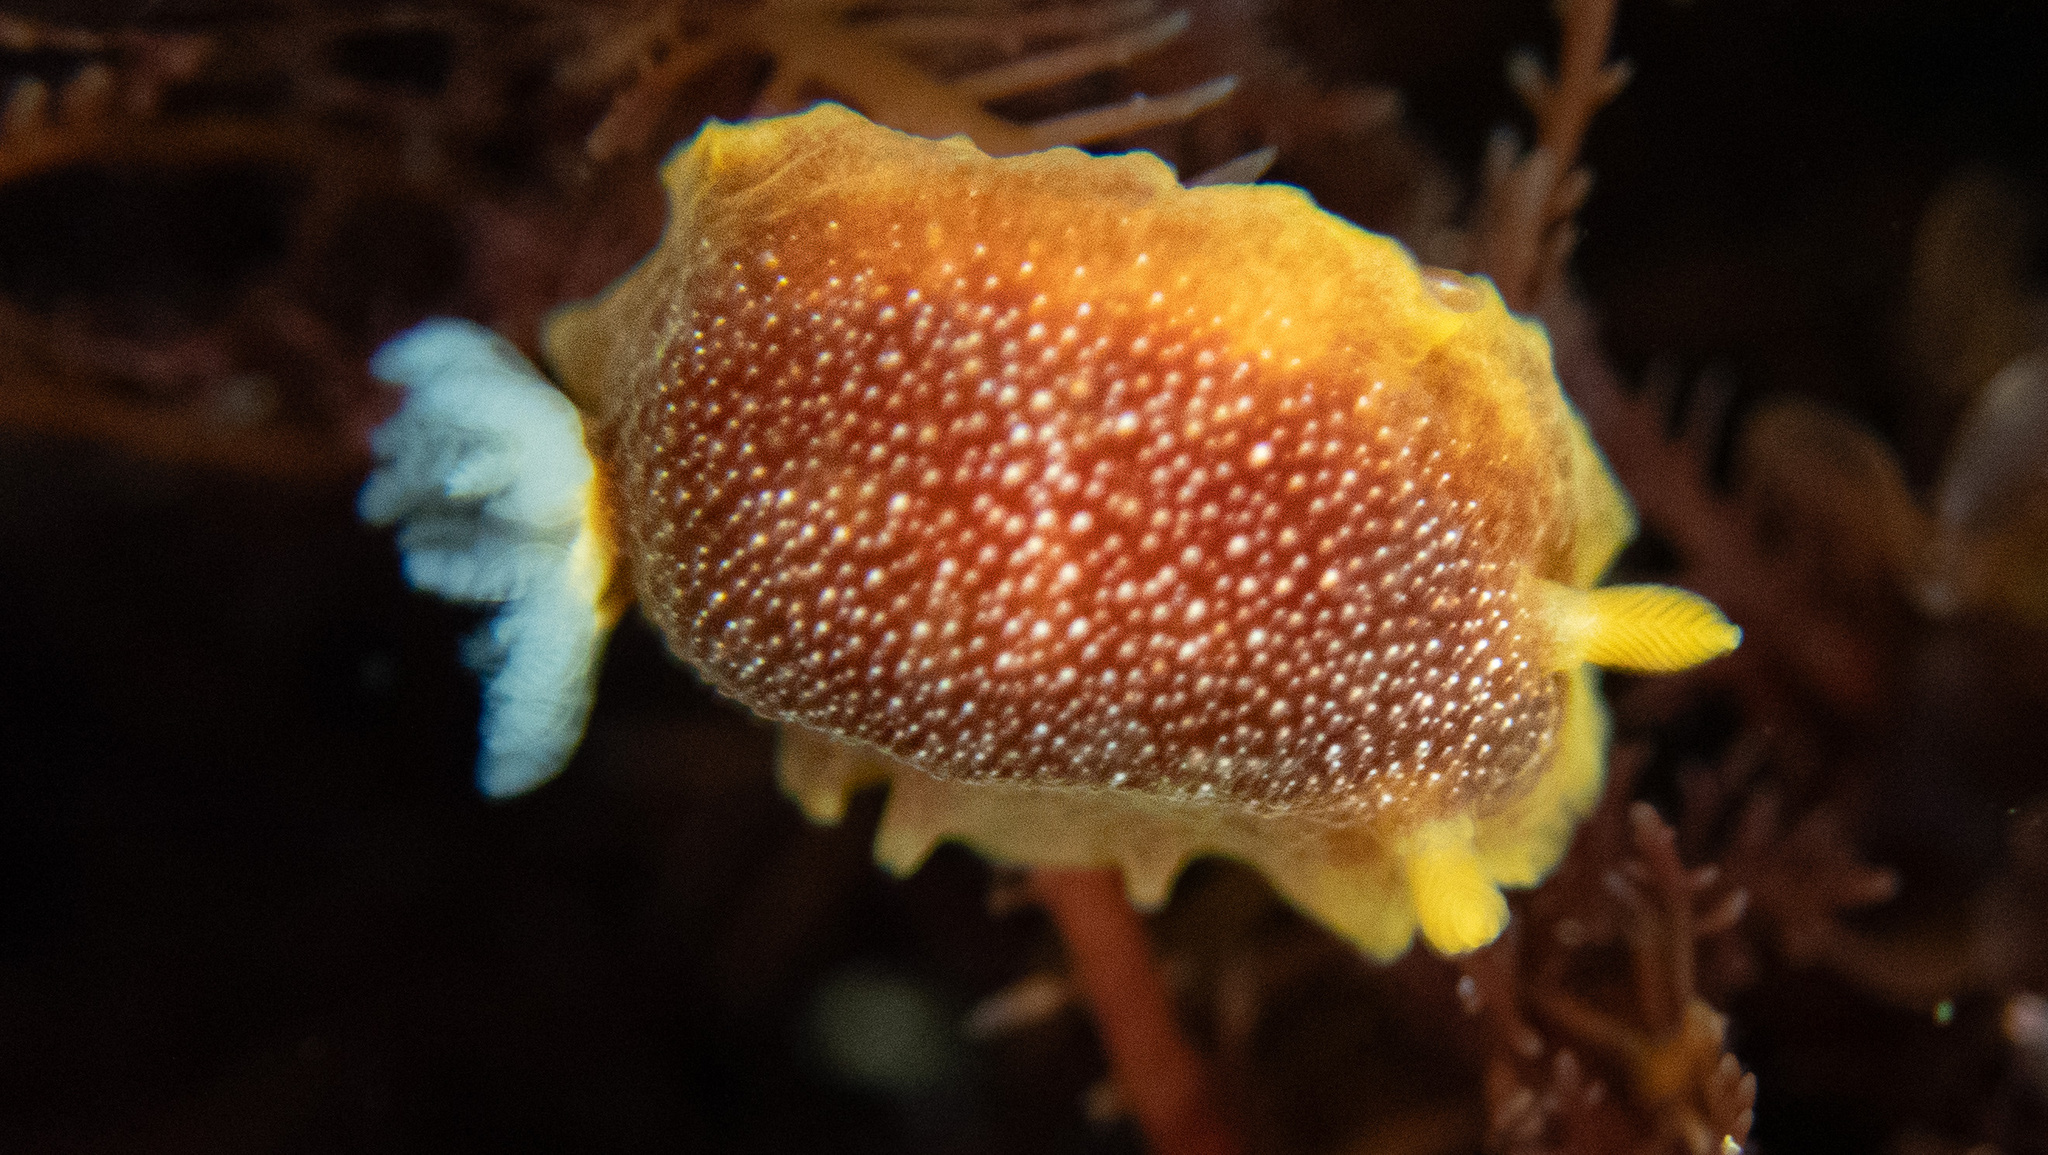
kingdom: Animalia
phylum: Mollusca
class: Gastropoda
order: Nudibranchia
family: Dendrodorididae
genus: Doriopsilla
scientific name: Doriopsilla albopunctata
